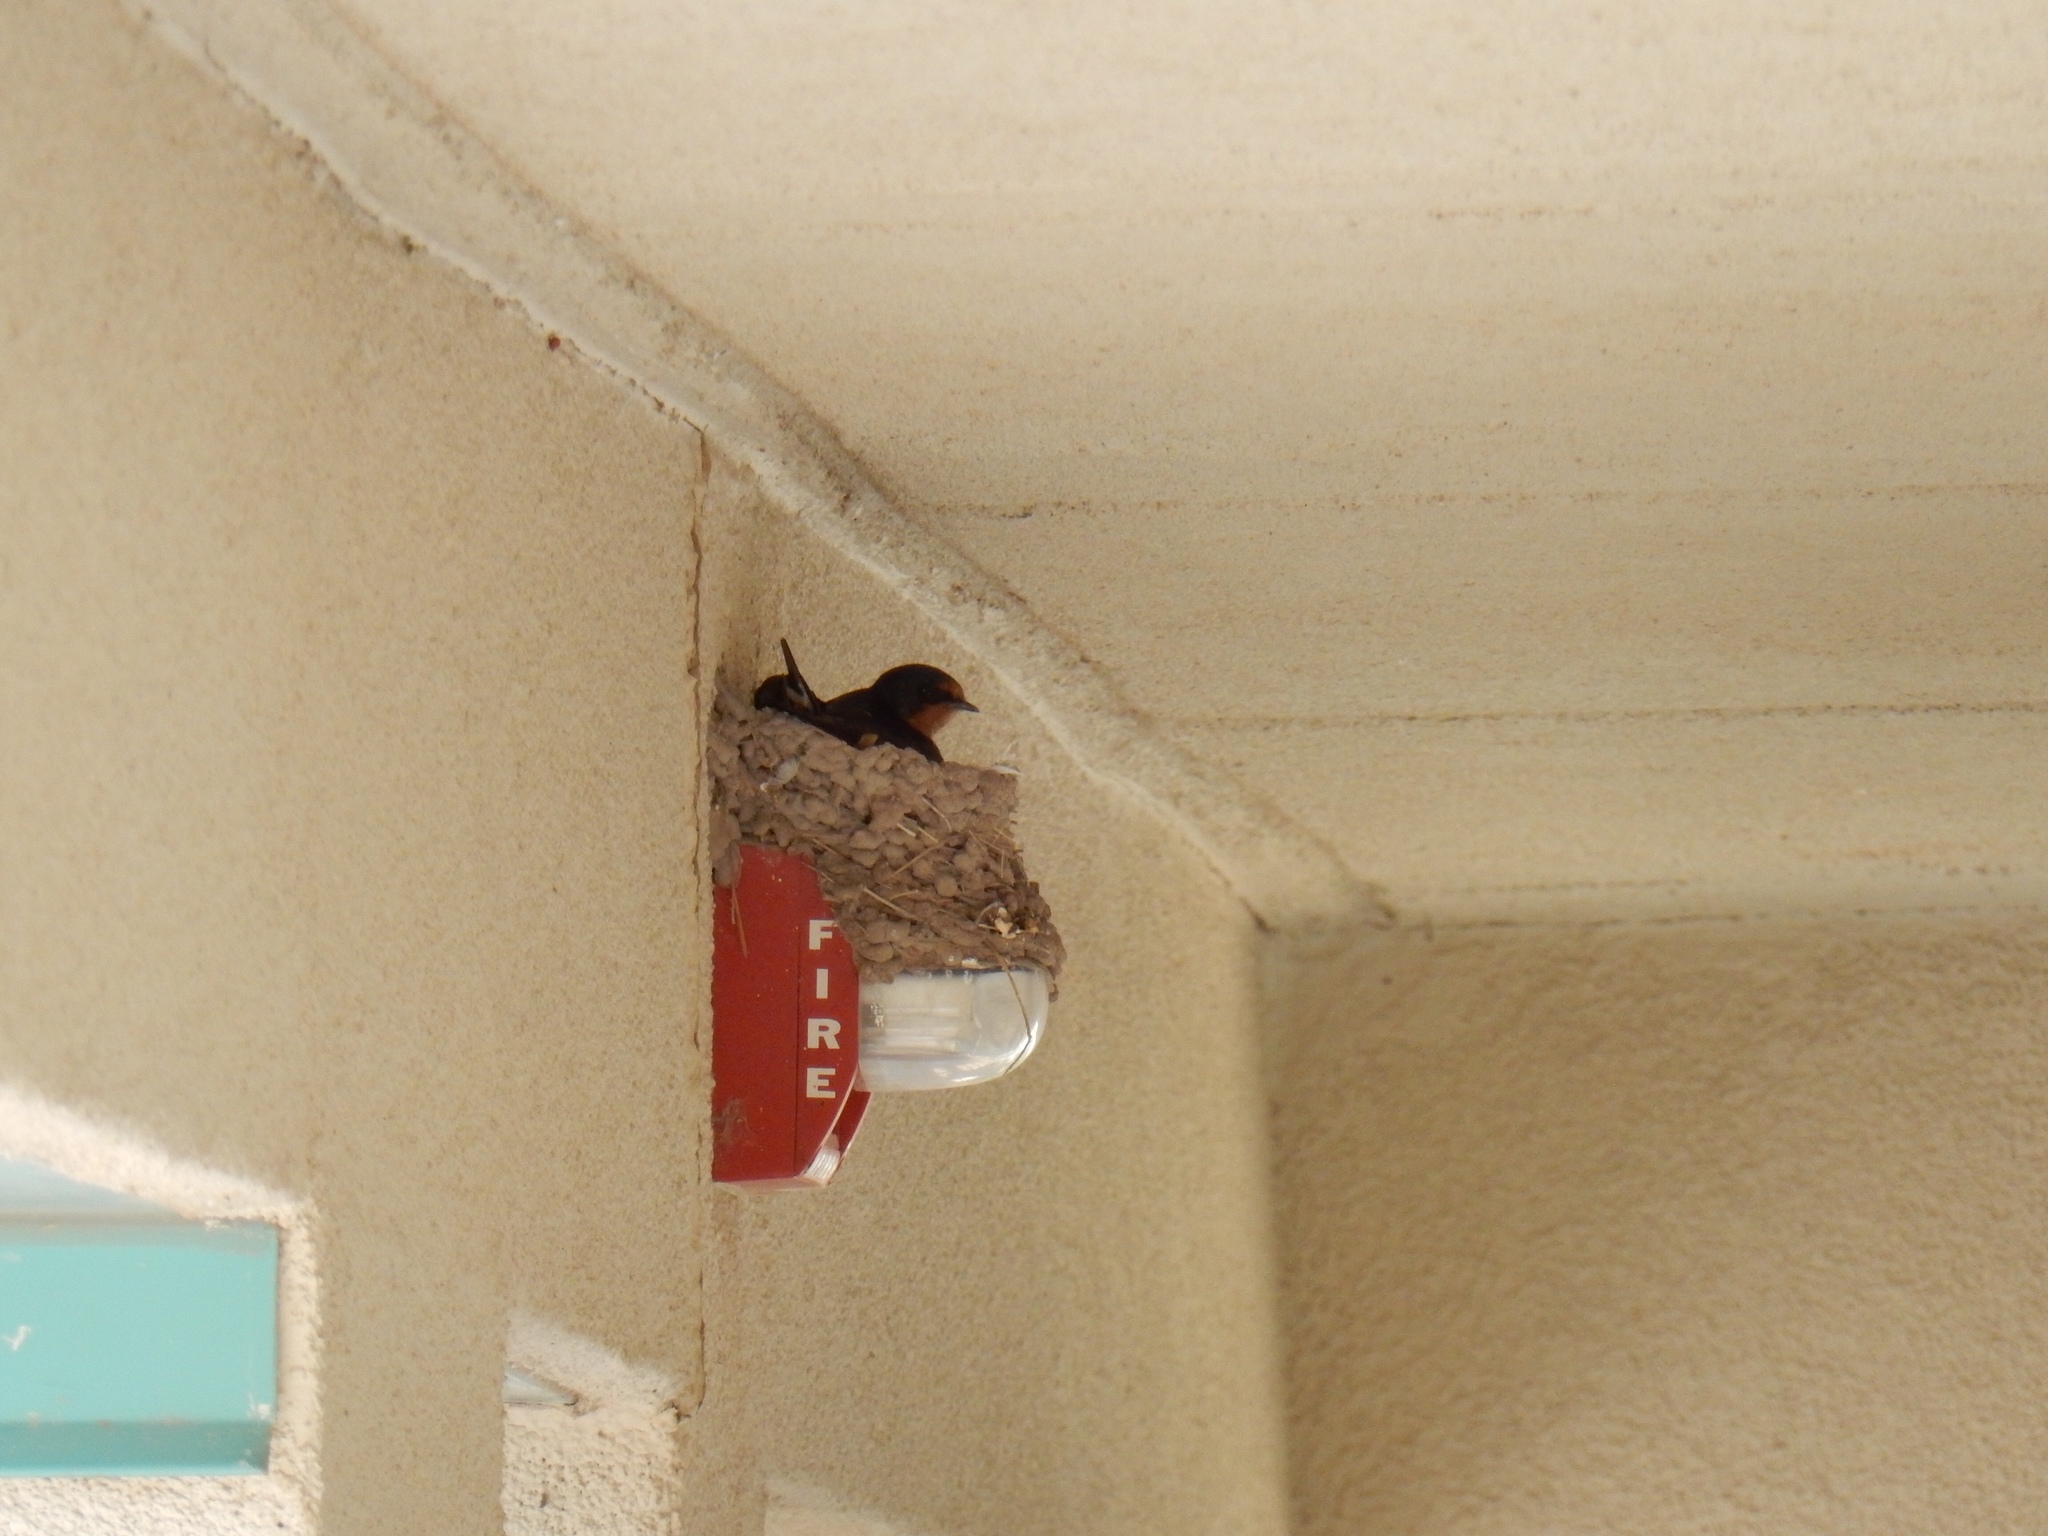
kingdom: Animalia
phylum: Chordata
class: Aves
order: Passeriformes
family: Hirundinidae
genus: Hirundo
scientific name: Hirundo rustica
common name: Barn swallow
